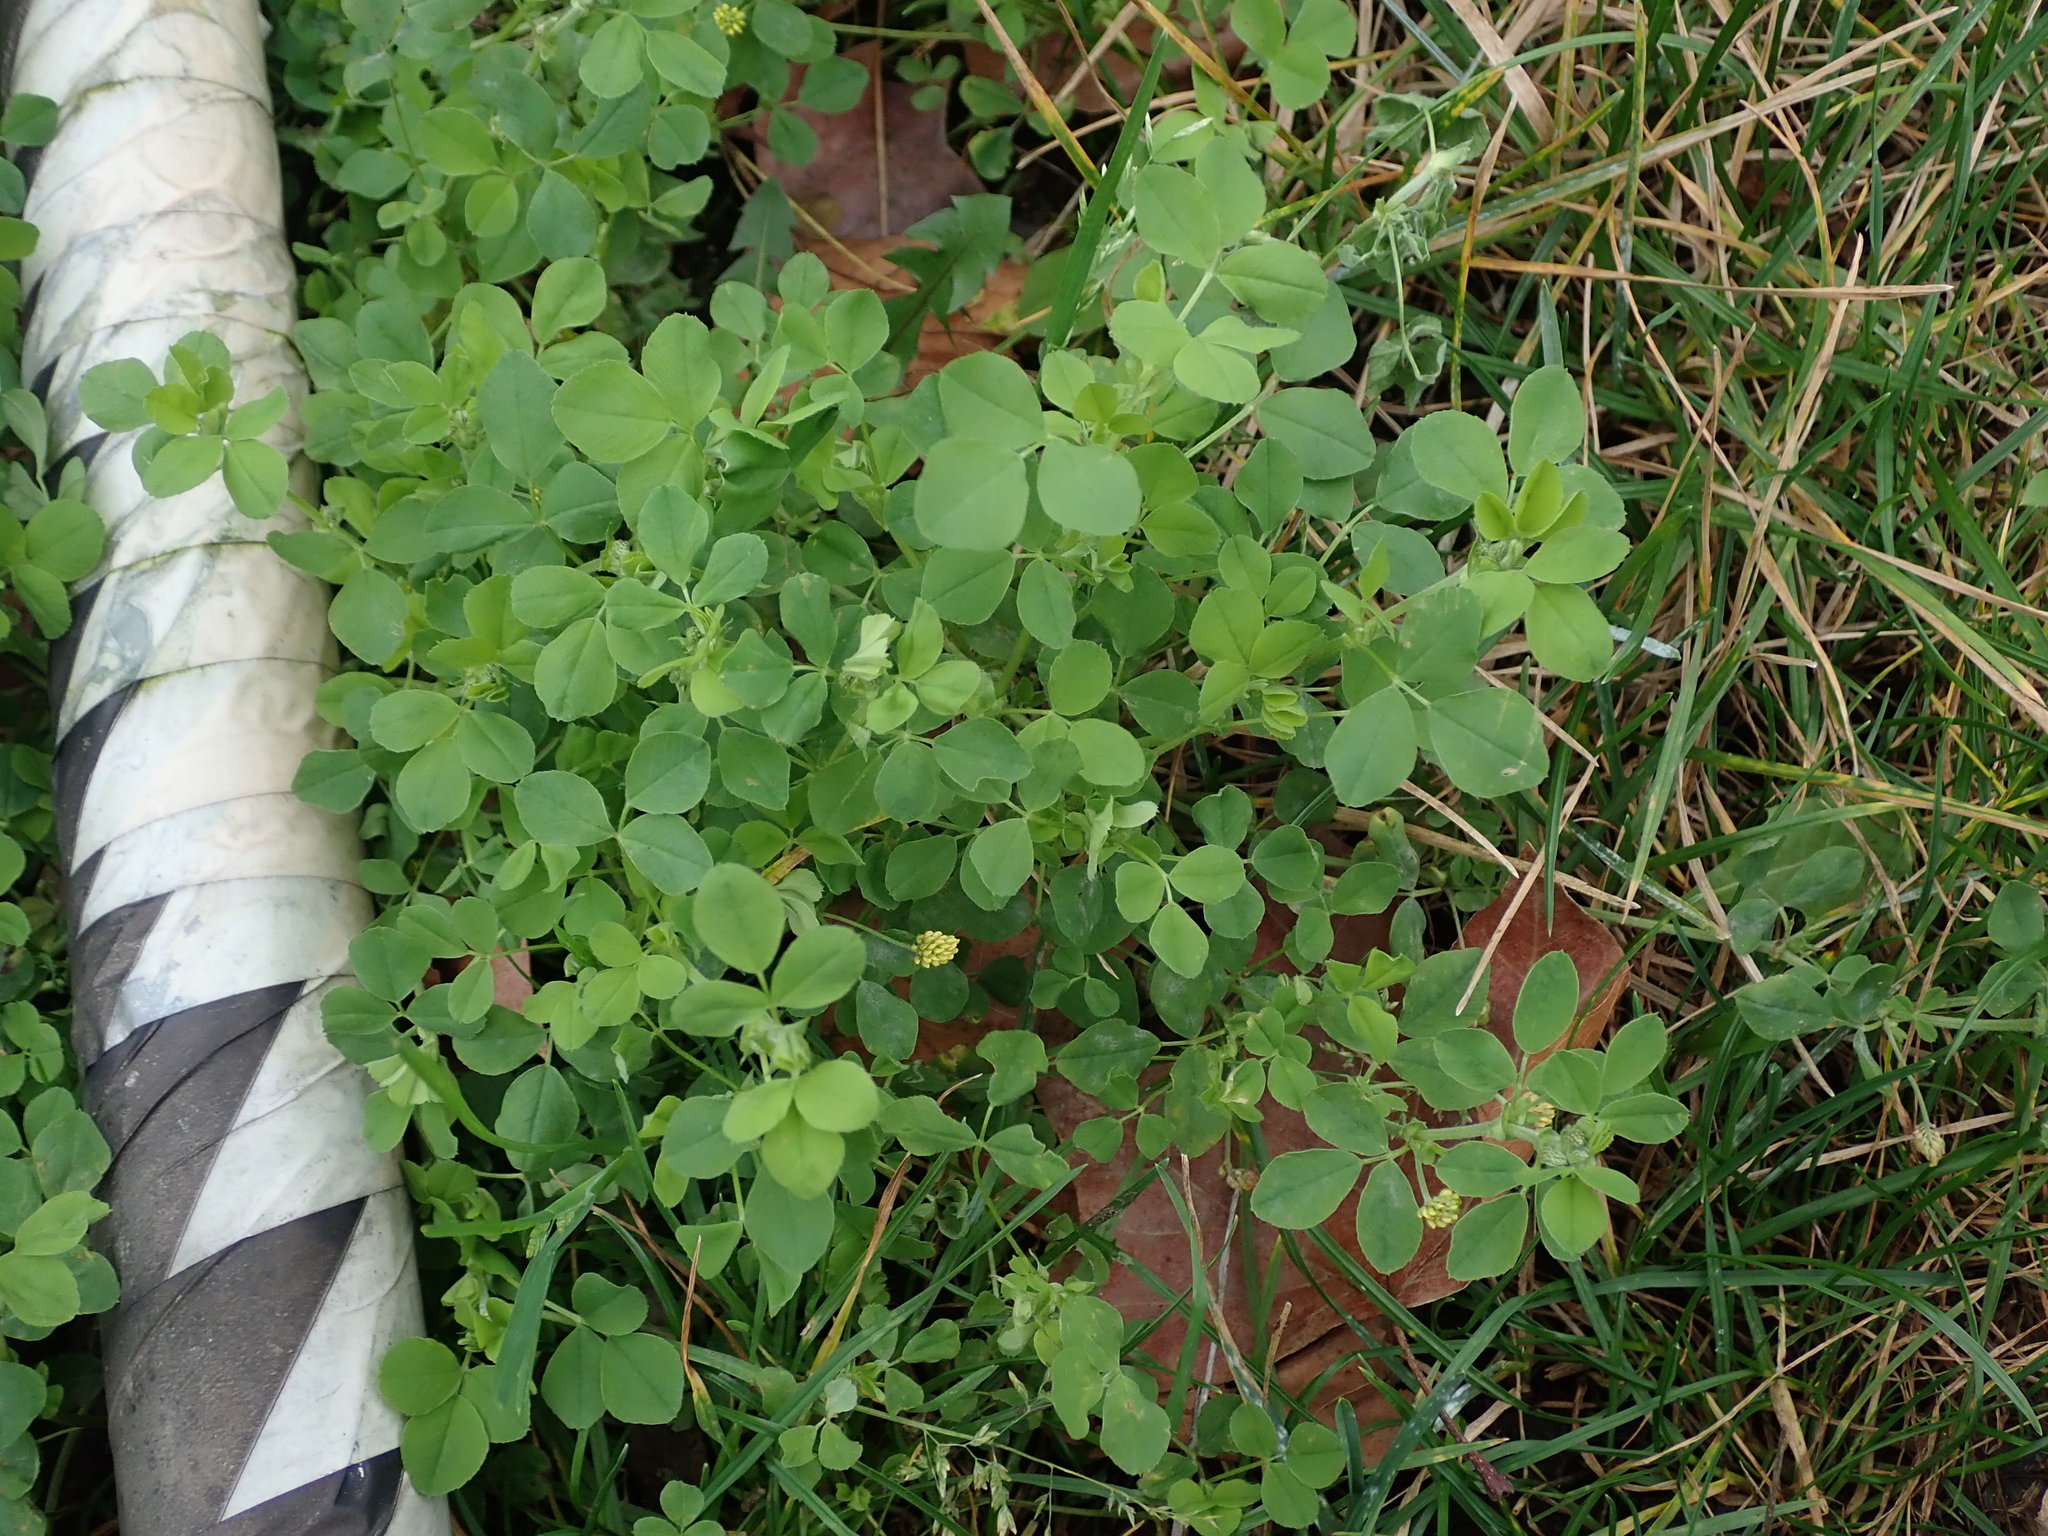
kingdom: Plantae
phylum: Tracheophyta
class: Magnoliopsida
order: Fabales
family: Fabaceae
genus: Medicago
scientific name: Medicago lupulina
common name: Black medick
